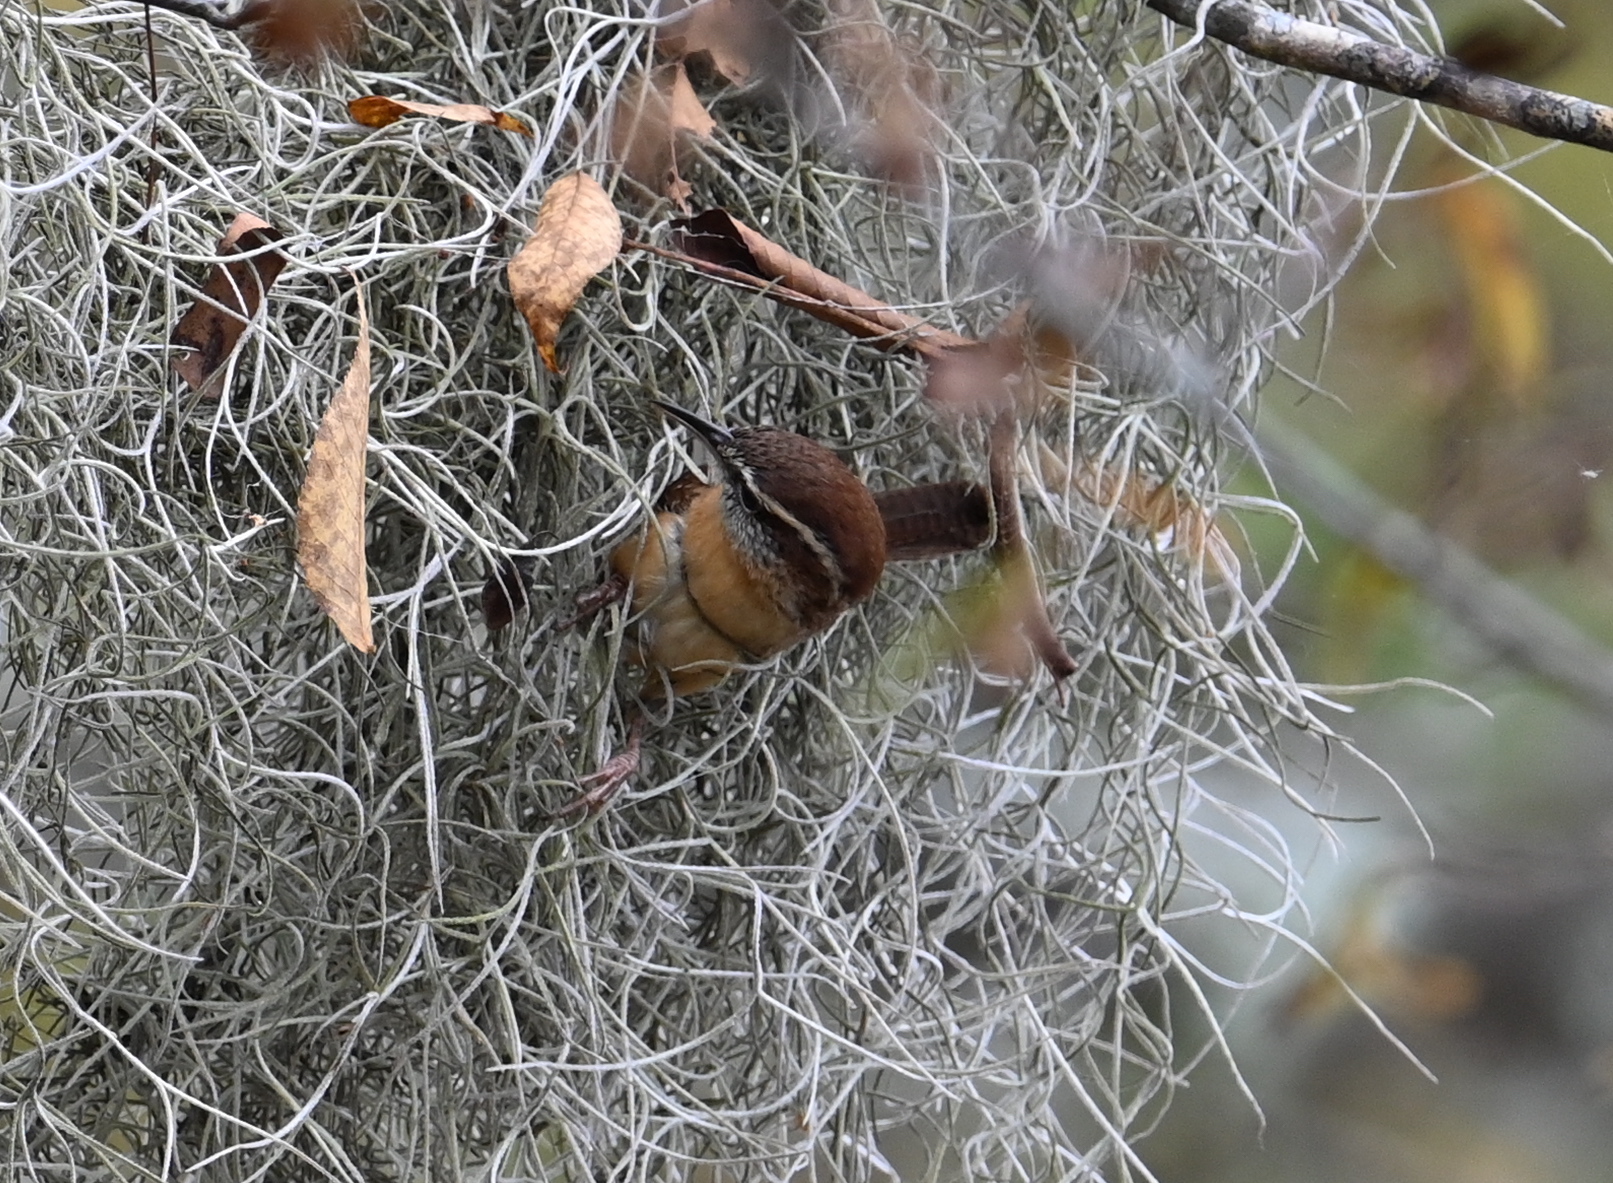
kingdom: Animalia
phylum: Chordata
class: Aves
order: Passeriformes
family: Troglodytidae
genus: Thryothorus
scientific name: Thryothorus ludovicianus
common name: Carolina wren
